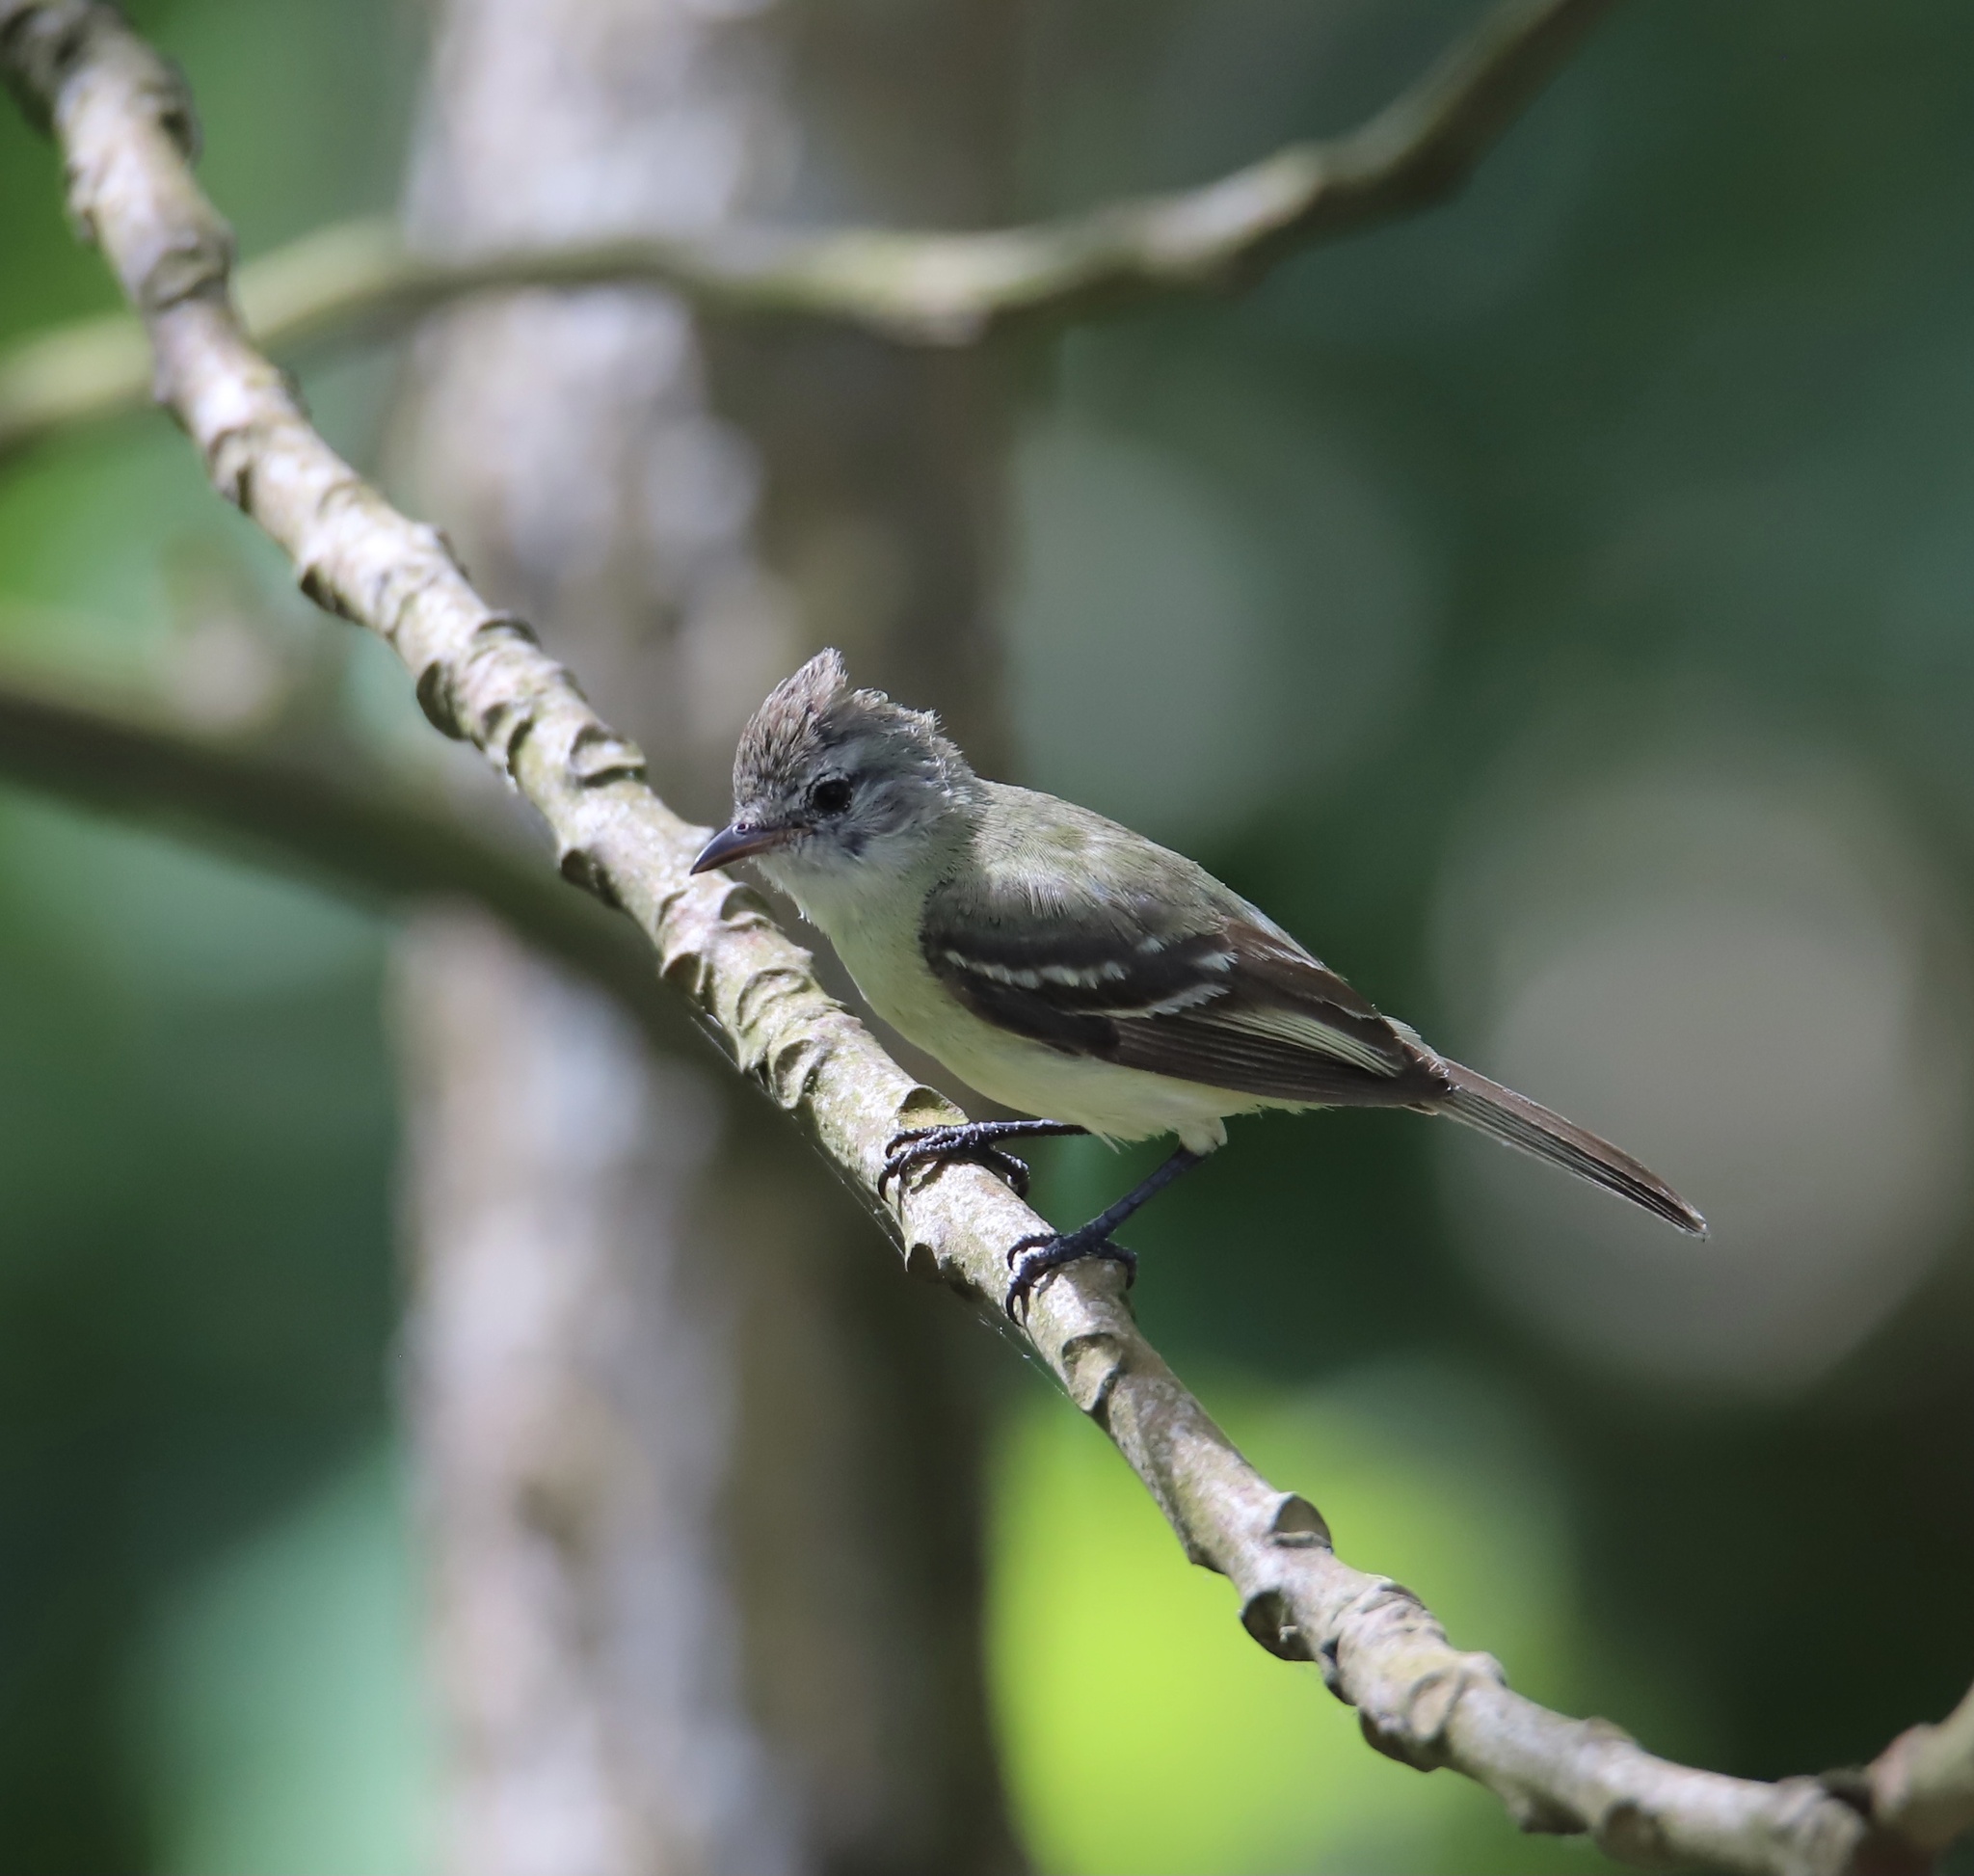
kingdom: Animalia
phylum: Chordata
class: Aves
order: Passeriformes
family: Tyrannidae
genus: Camptostoma
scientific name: Camptostoma obsoletum
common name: Southern beardless-tyrannulet
